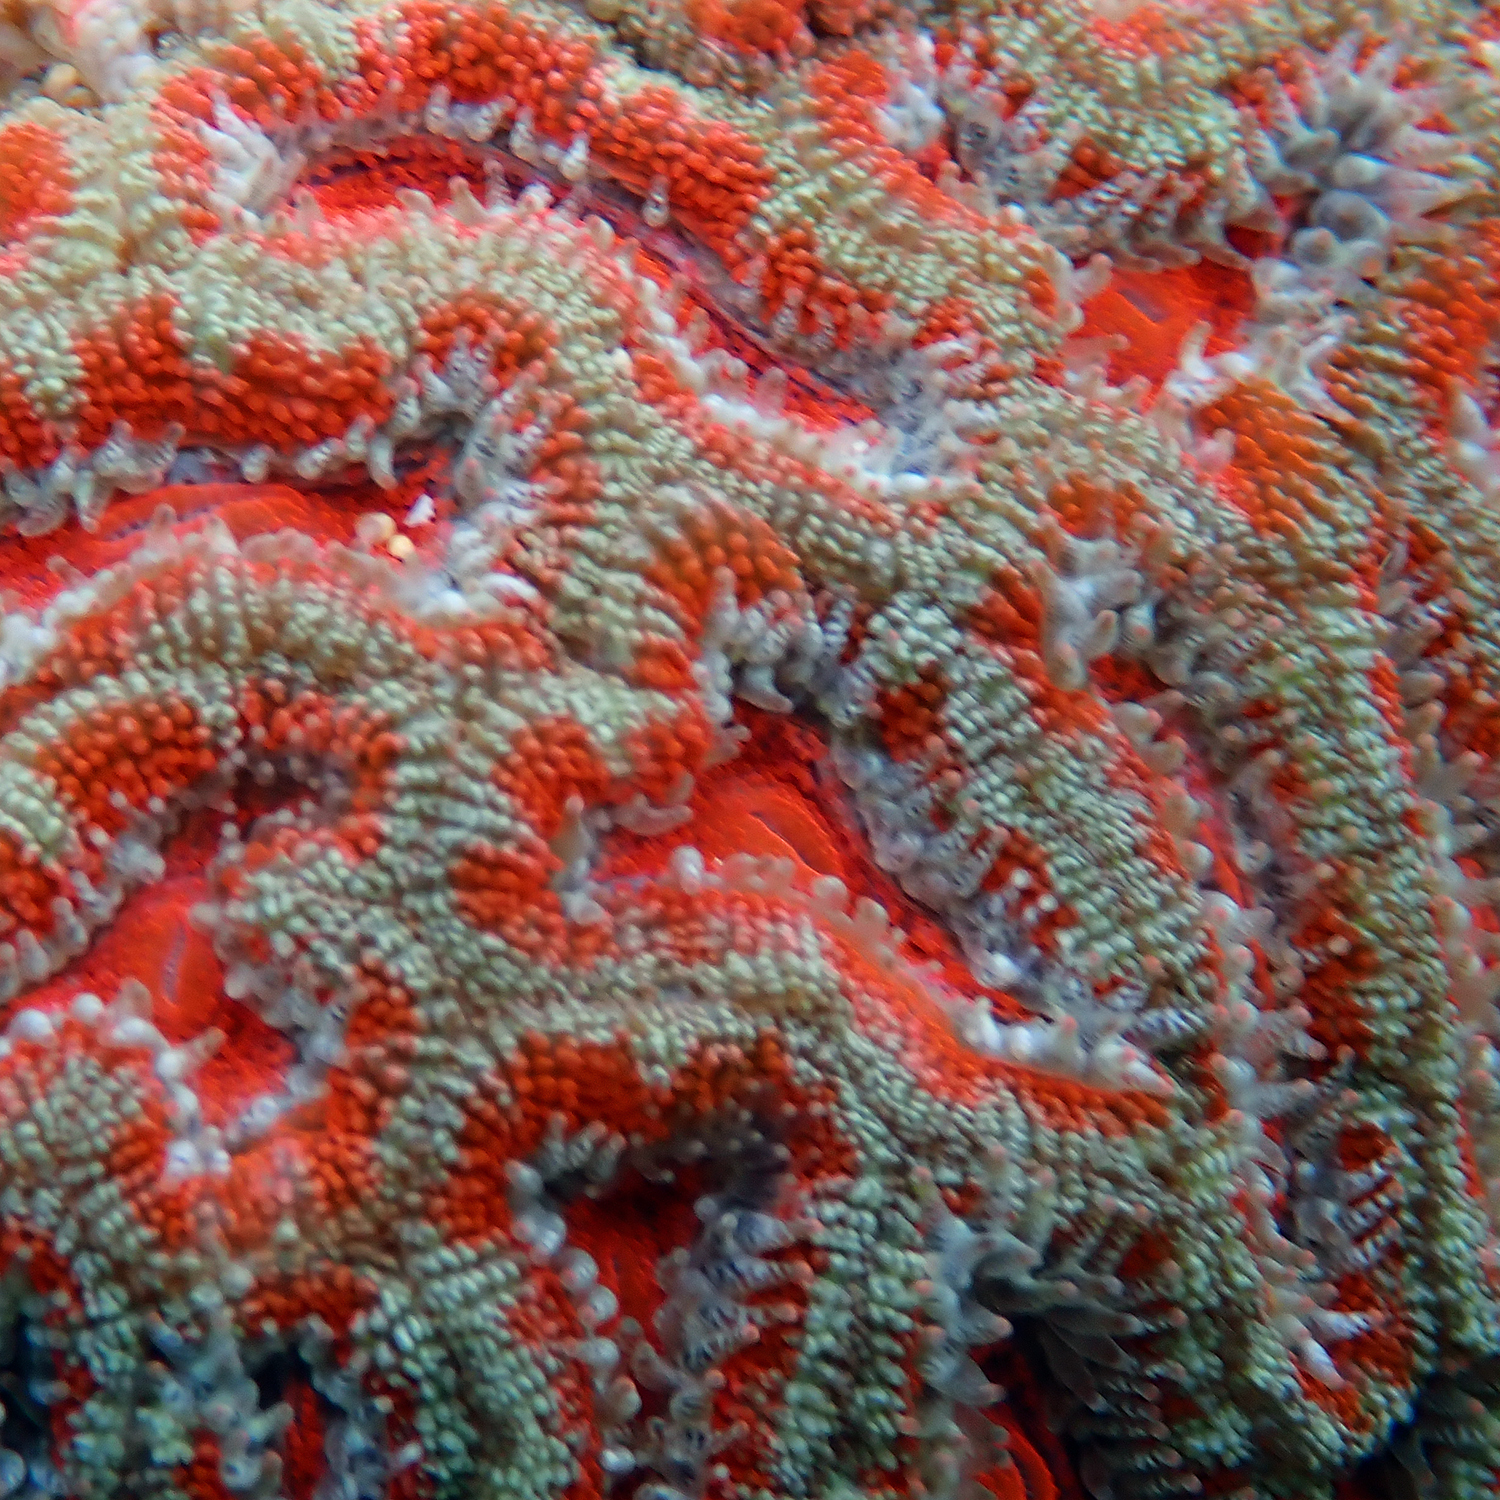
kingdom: Animalia
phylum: Cnidaria
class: Anthozoa
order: Scleractinia
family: Lobophylliidae
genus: Micromussa
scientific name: Micromussa lordhowensis
